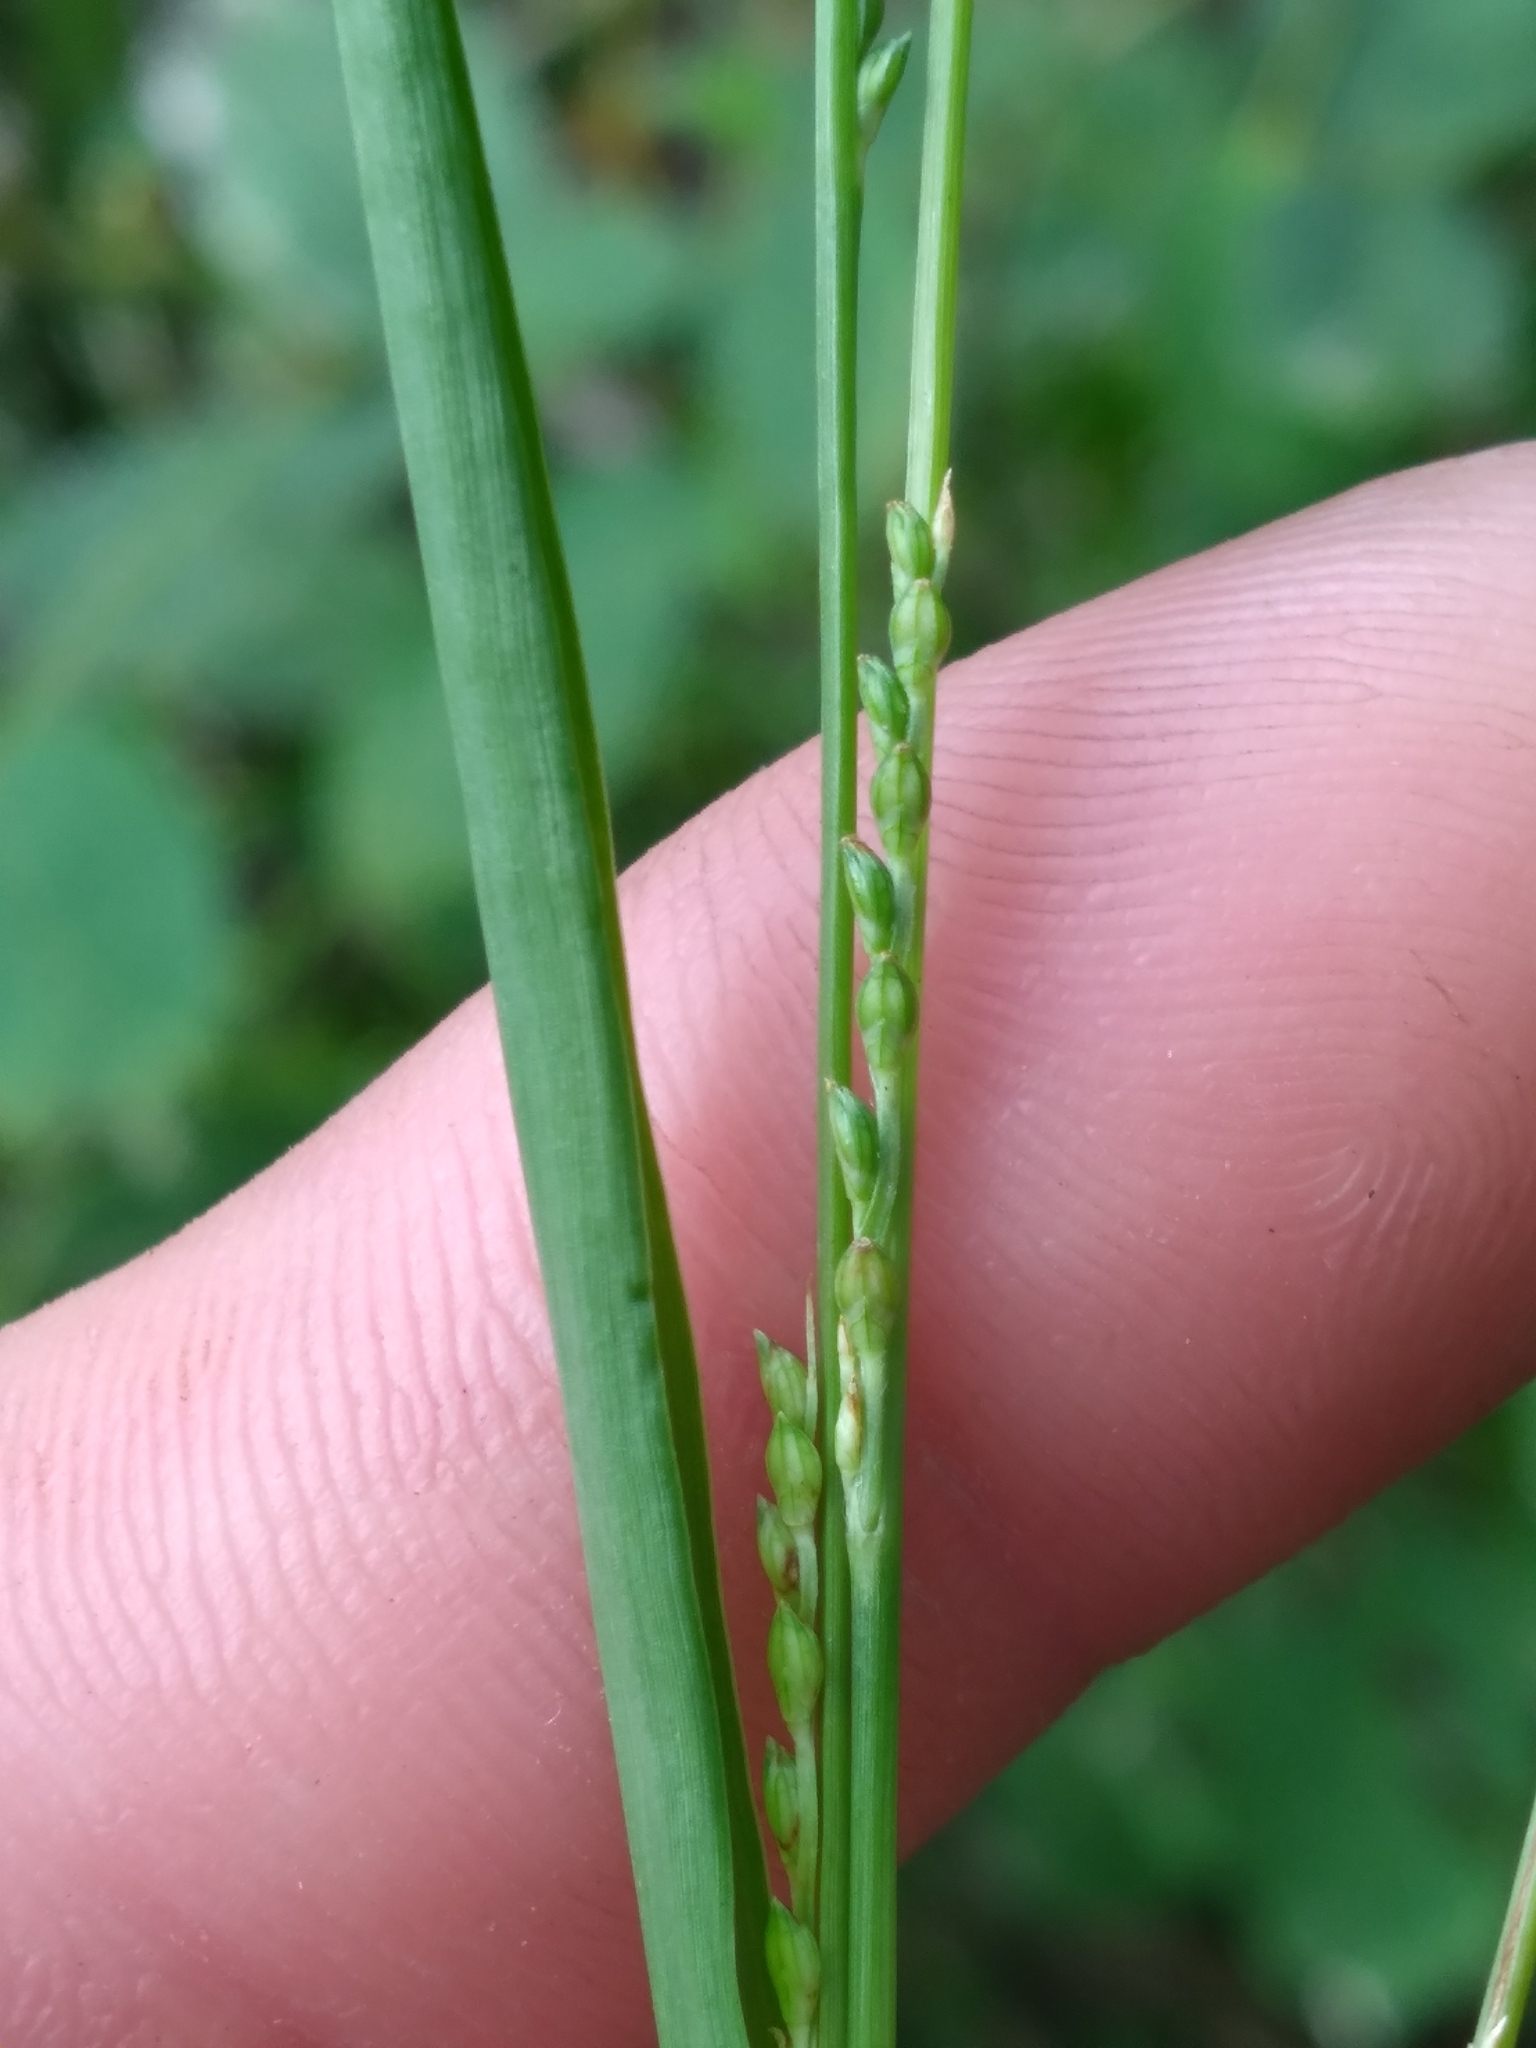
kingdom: Plantae
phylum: Tracheophyta
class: Liliopsida
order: Poales
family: Poaceae
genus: Setaria
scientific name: Setaria chapmanii
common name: Chapman's bristle grass
